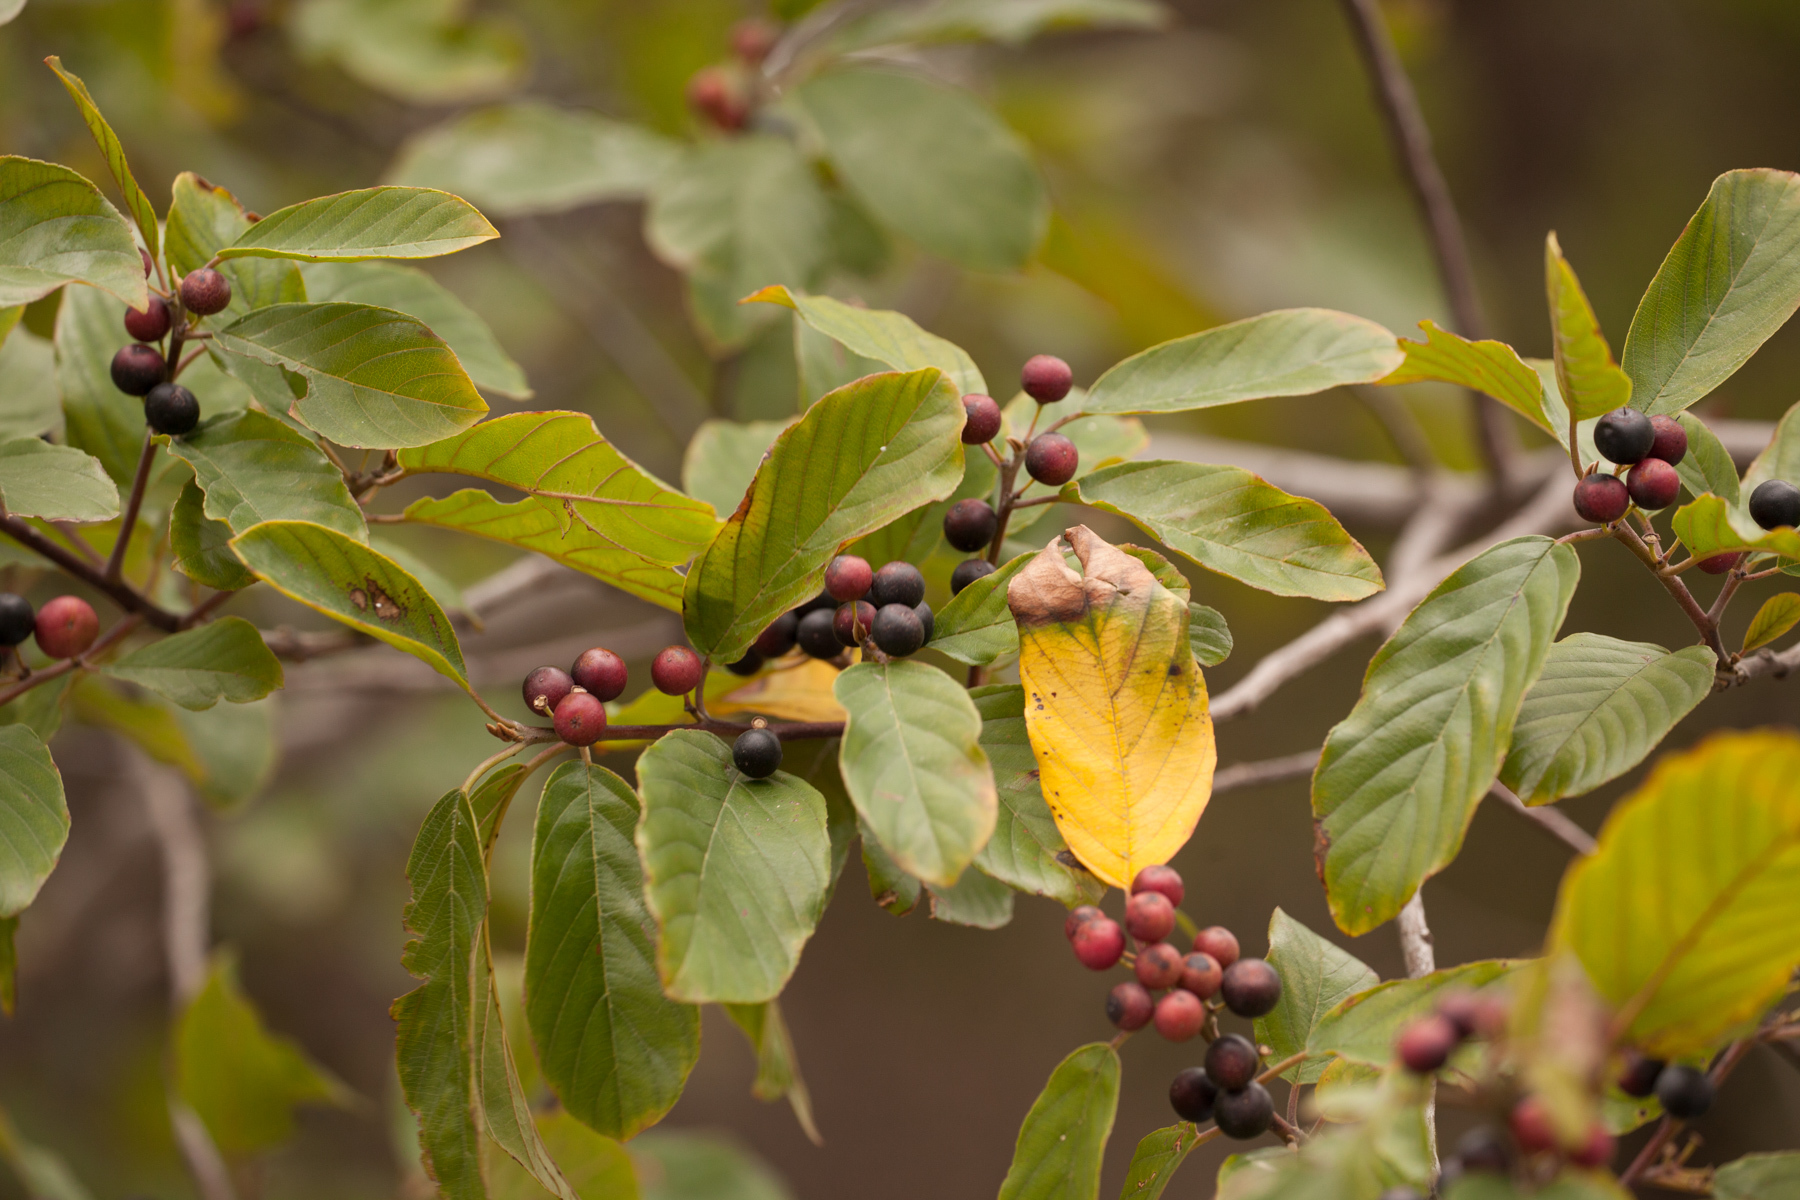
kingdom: Plantae
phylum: Tracheophyta
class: Magnoliopsida
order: Rosales
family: Rhamnaceae
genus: Frangula
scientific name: Frangula caroliniana
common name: Carolina buckthorn
